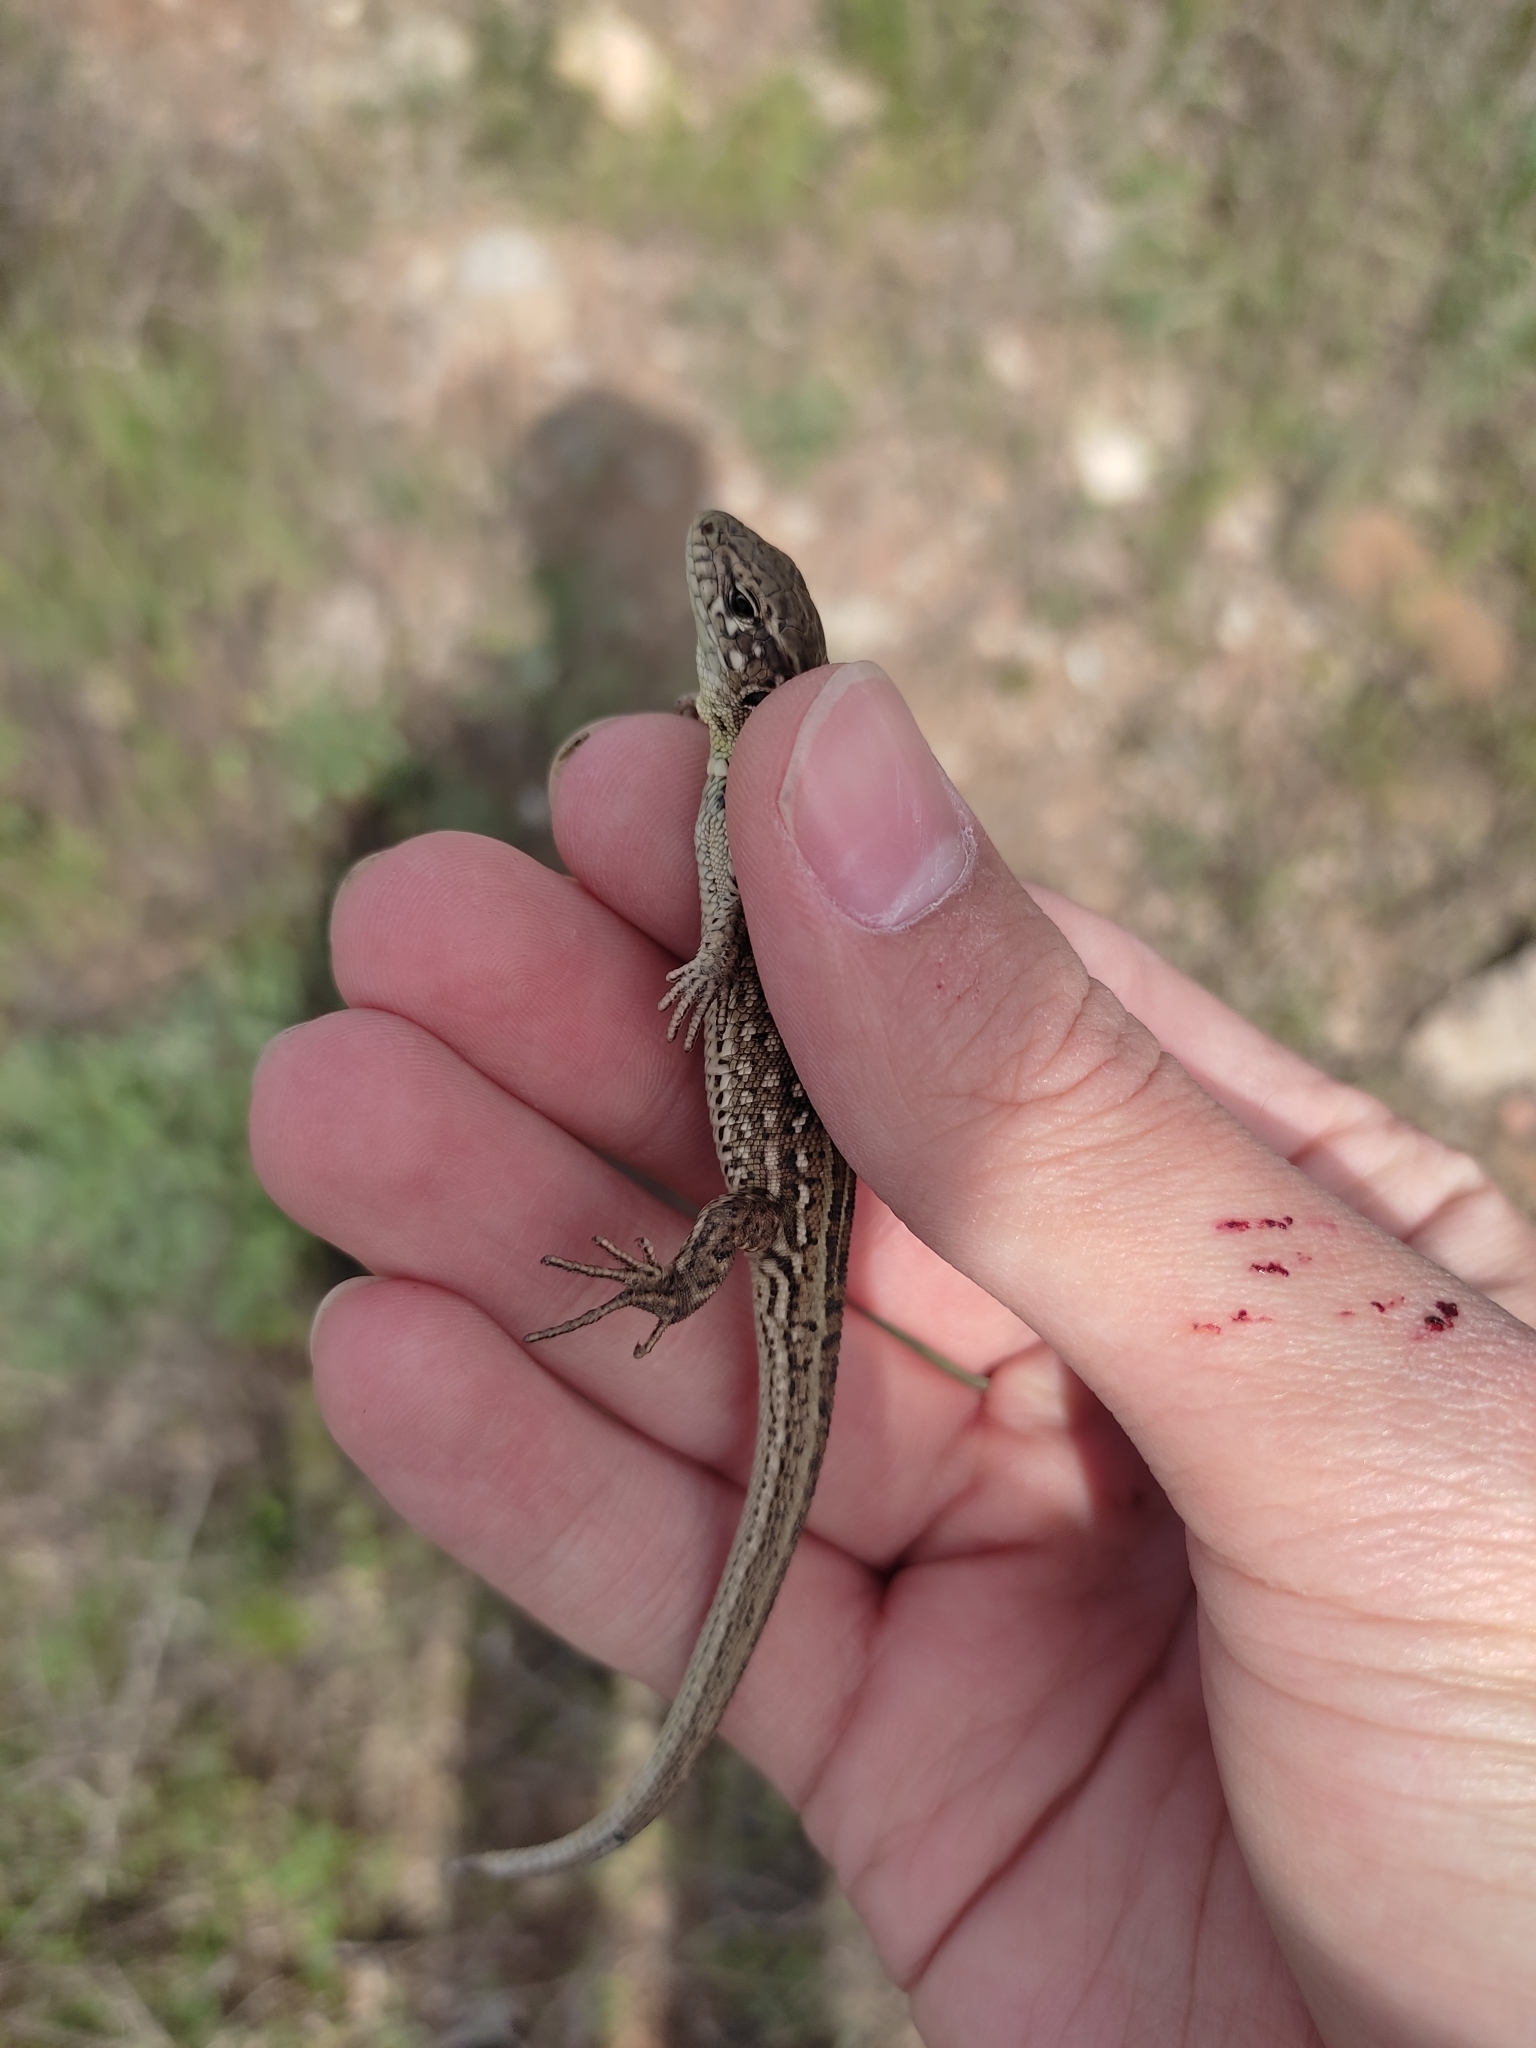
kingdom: Animalia
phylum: Chordata
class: Squamata
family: Lacertidae
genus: Lacerta
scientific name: Lacerta agilis
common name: Sand lizard
